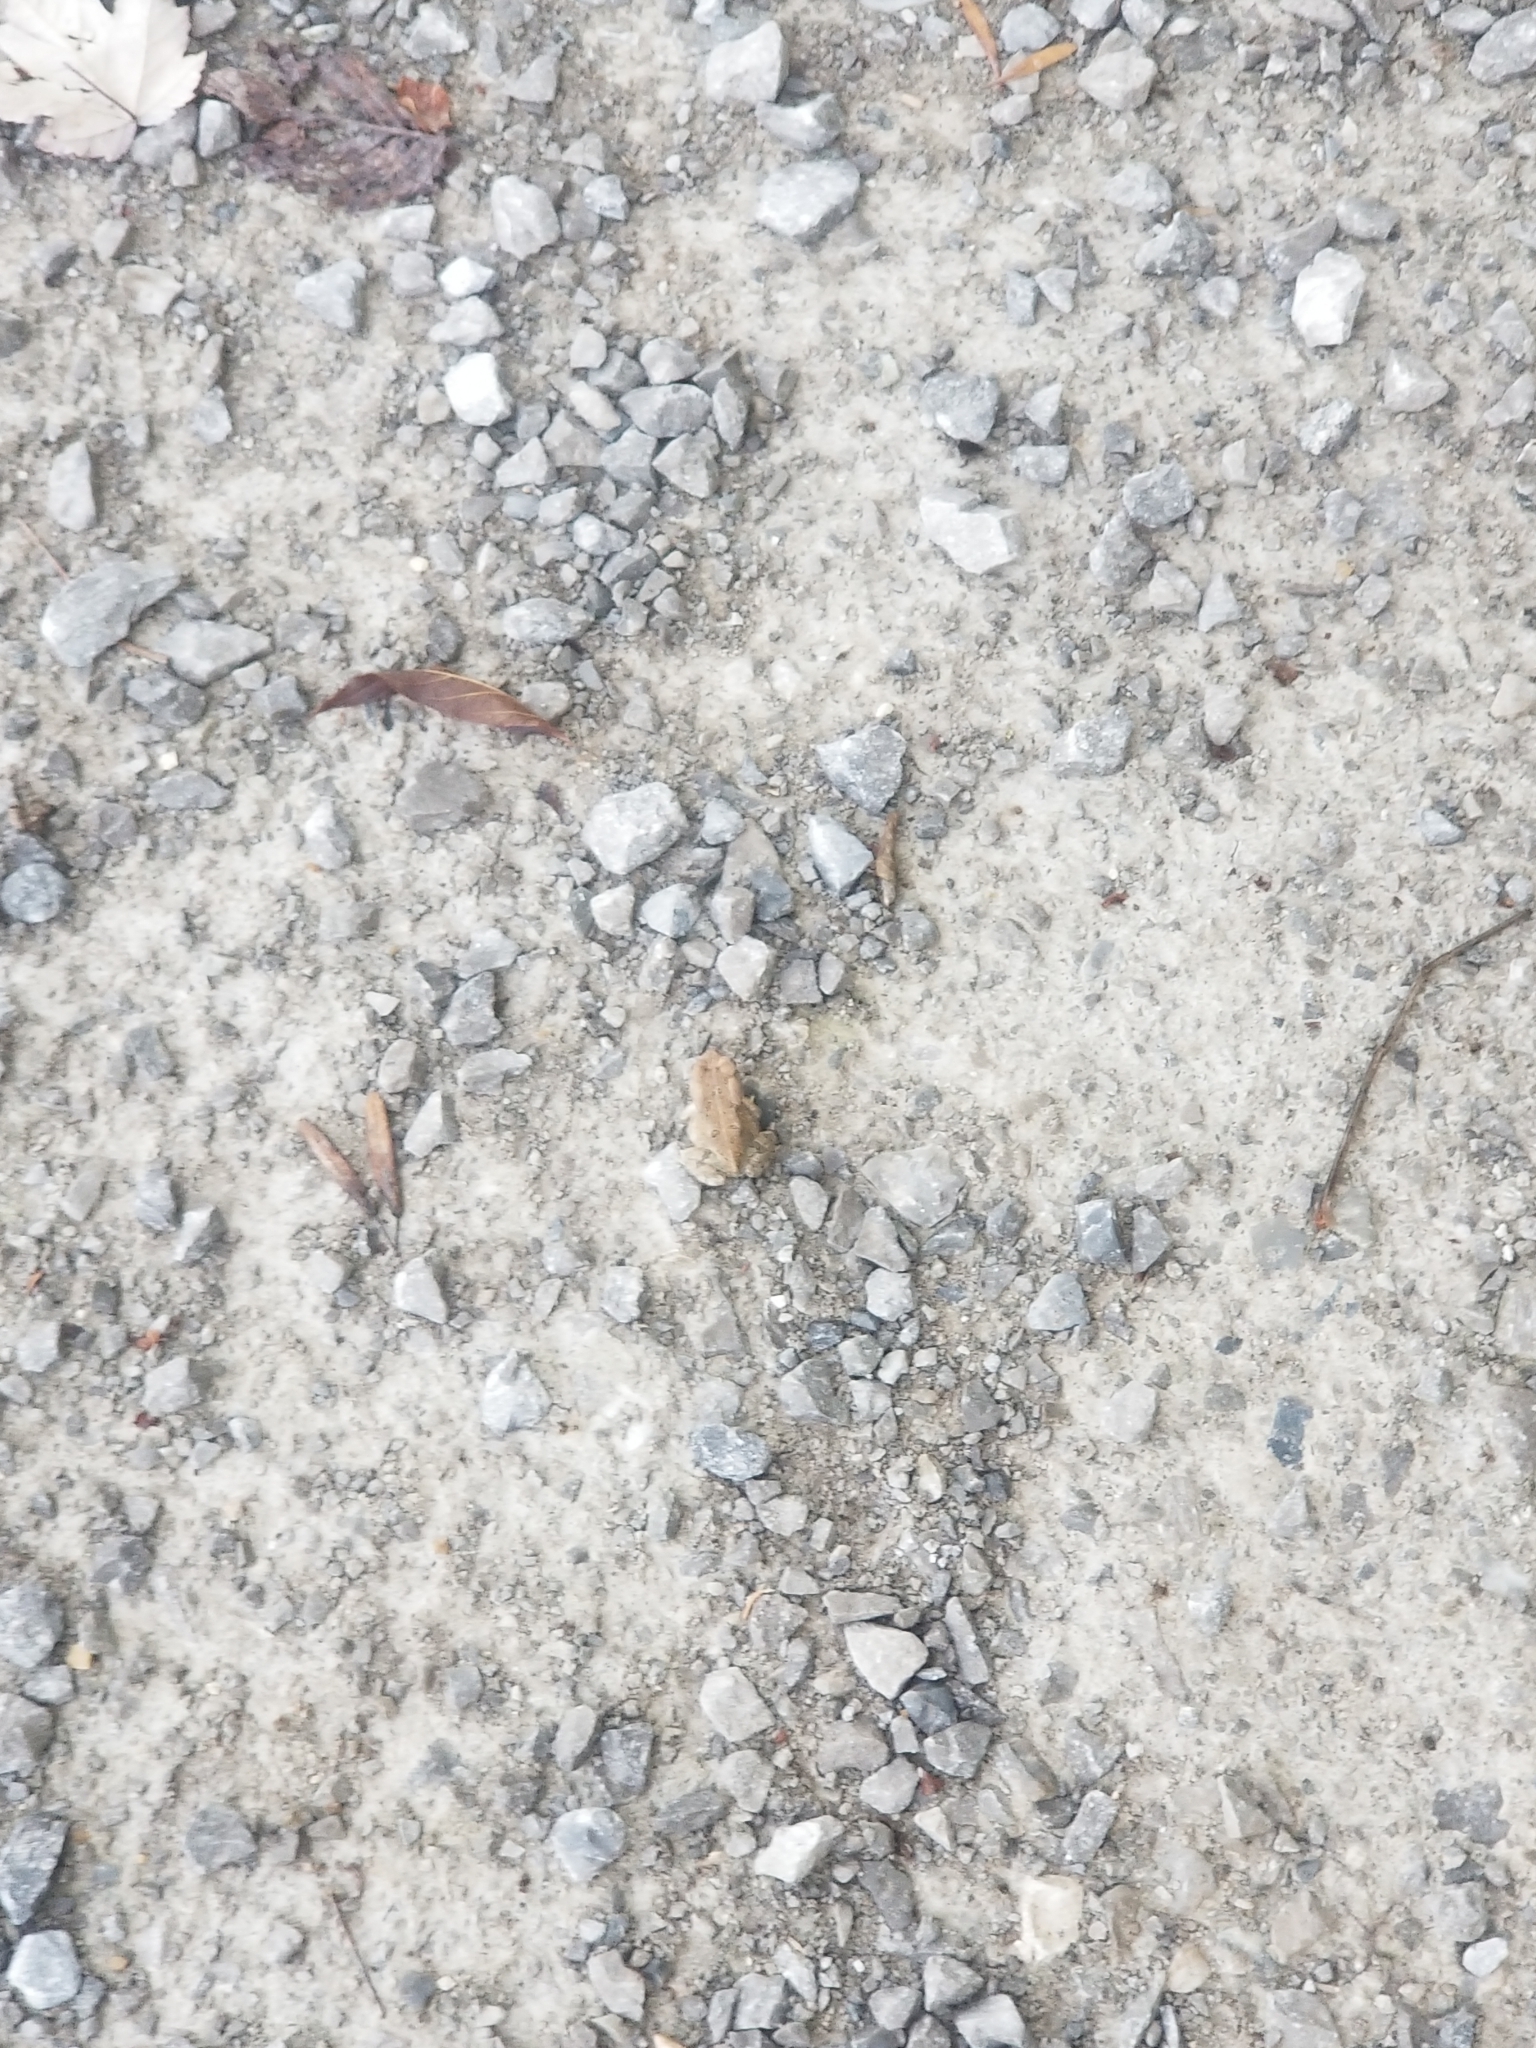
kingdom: Animalia
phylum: Chordata
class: Amphibia
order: Anura
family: Bufonidae
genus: Anaxyrus
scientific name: Anaxyrus americanus
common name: American toad
